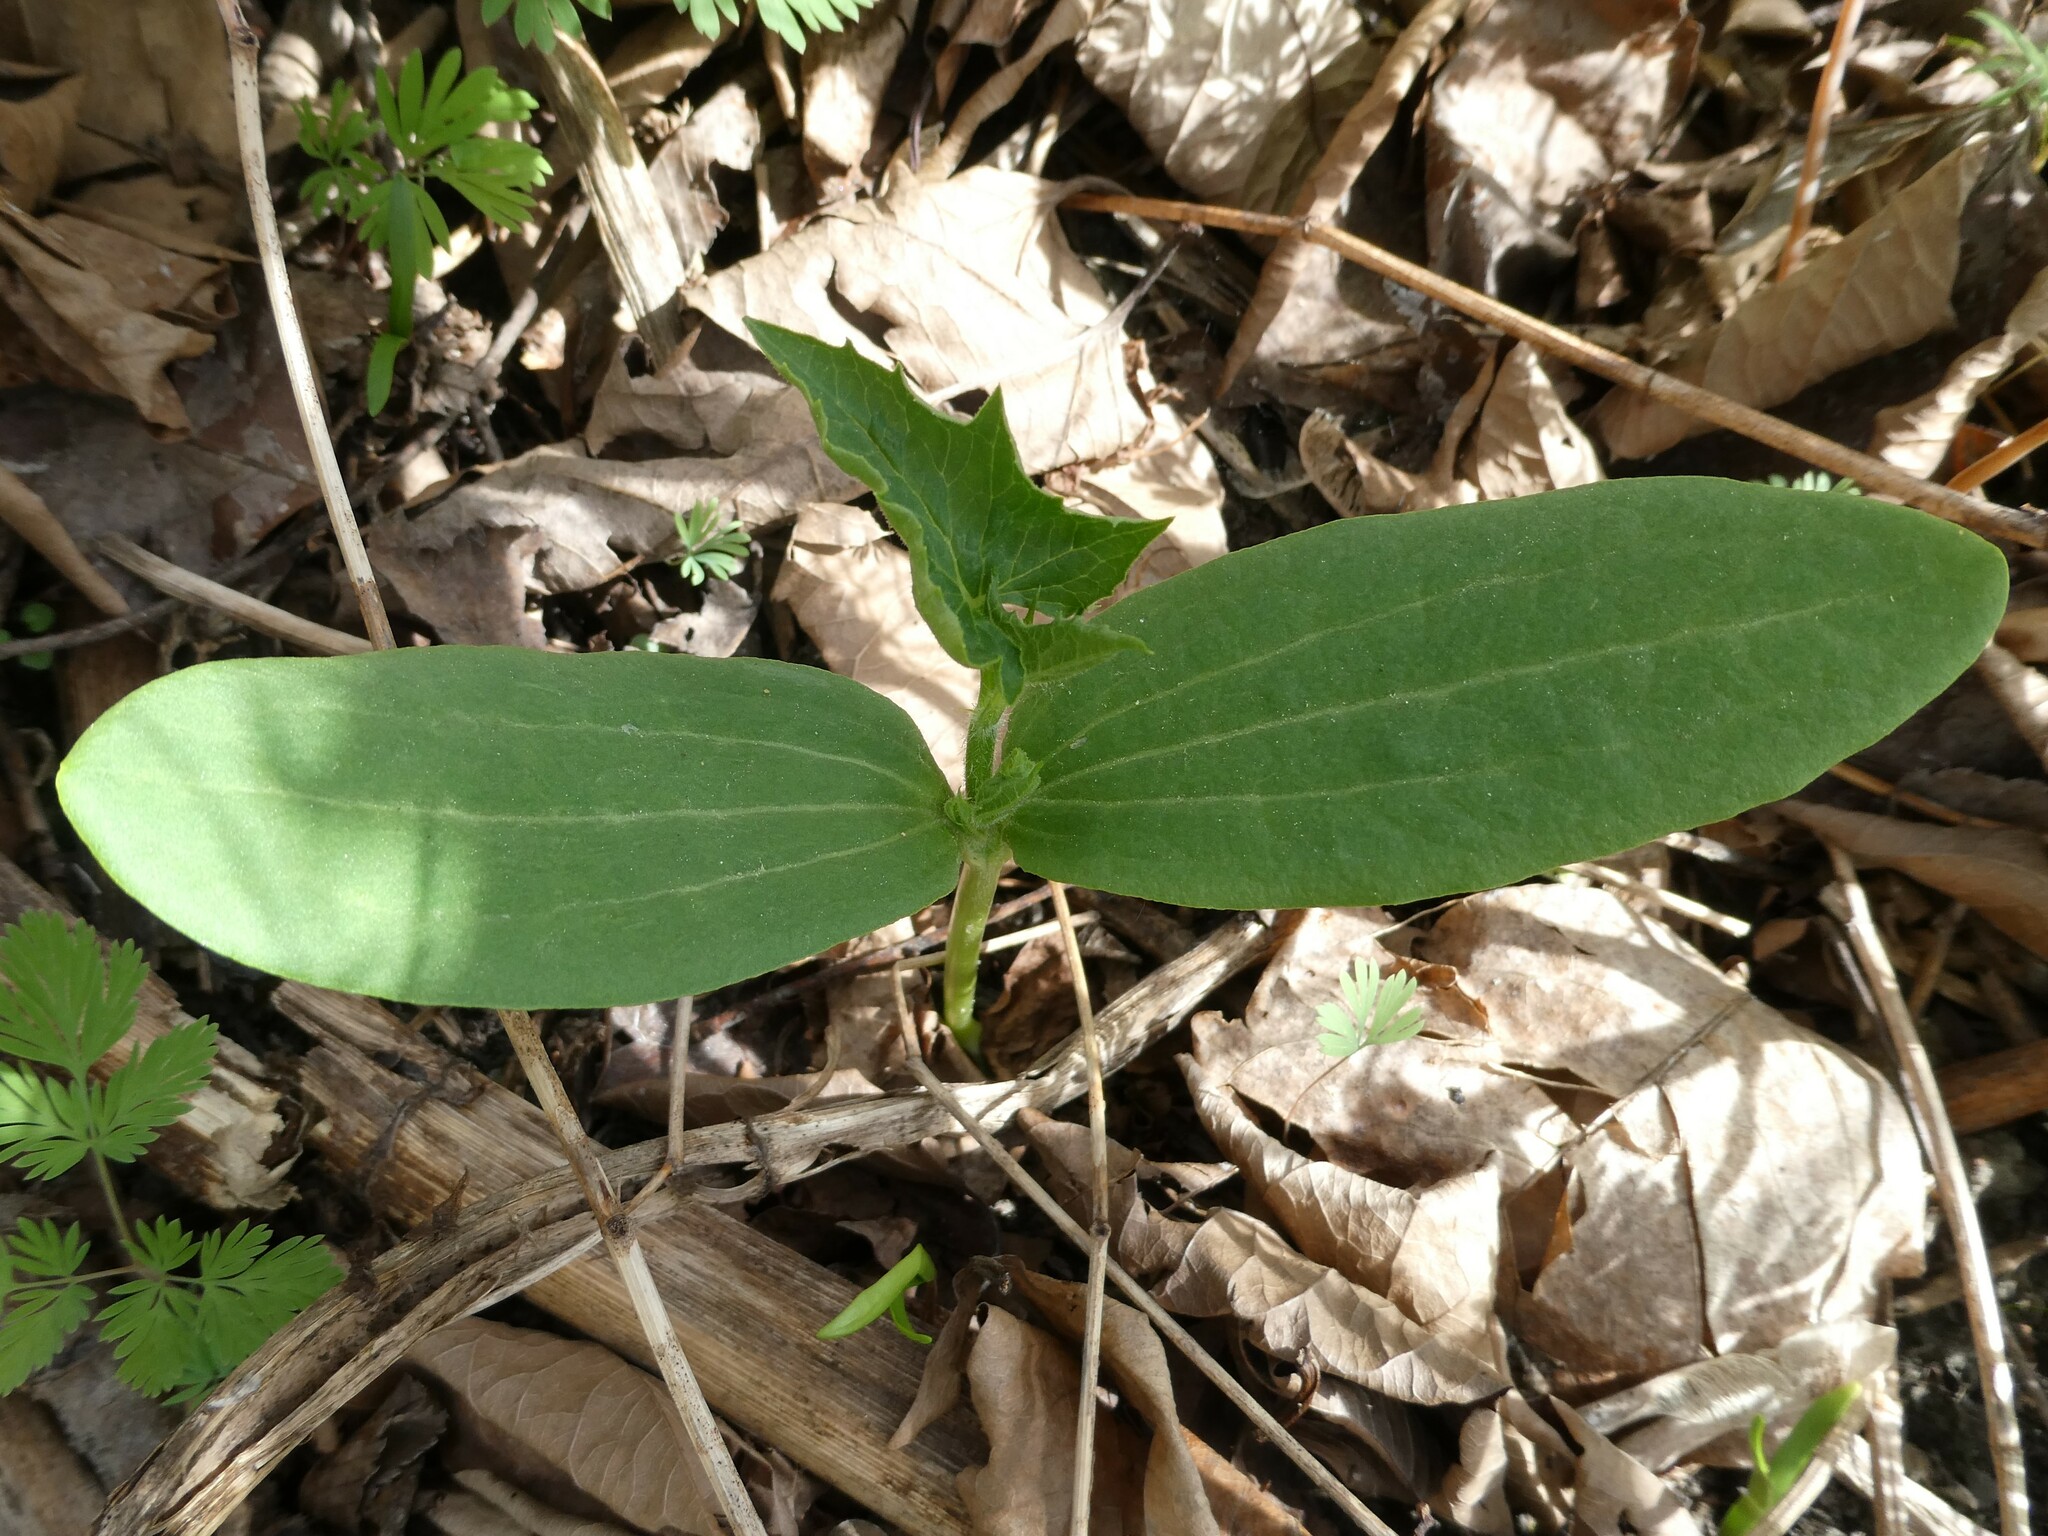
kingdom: Plantae
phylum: Tracheophyta
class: Magnoliopsida
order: Cucurbitales
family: Cucurbitaceae
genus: Echinocystis
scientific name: Echinocystis lobata
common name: Wild cucumber
